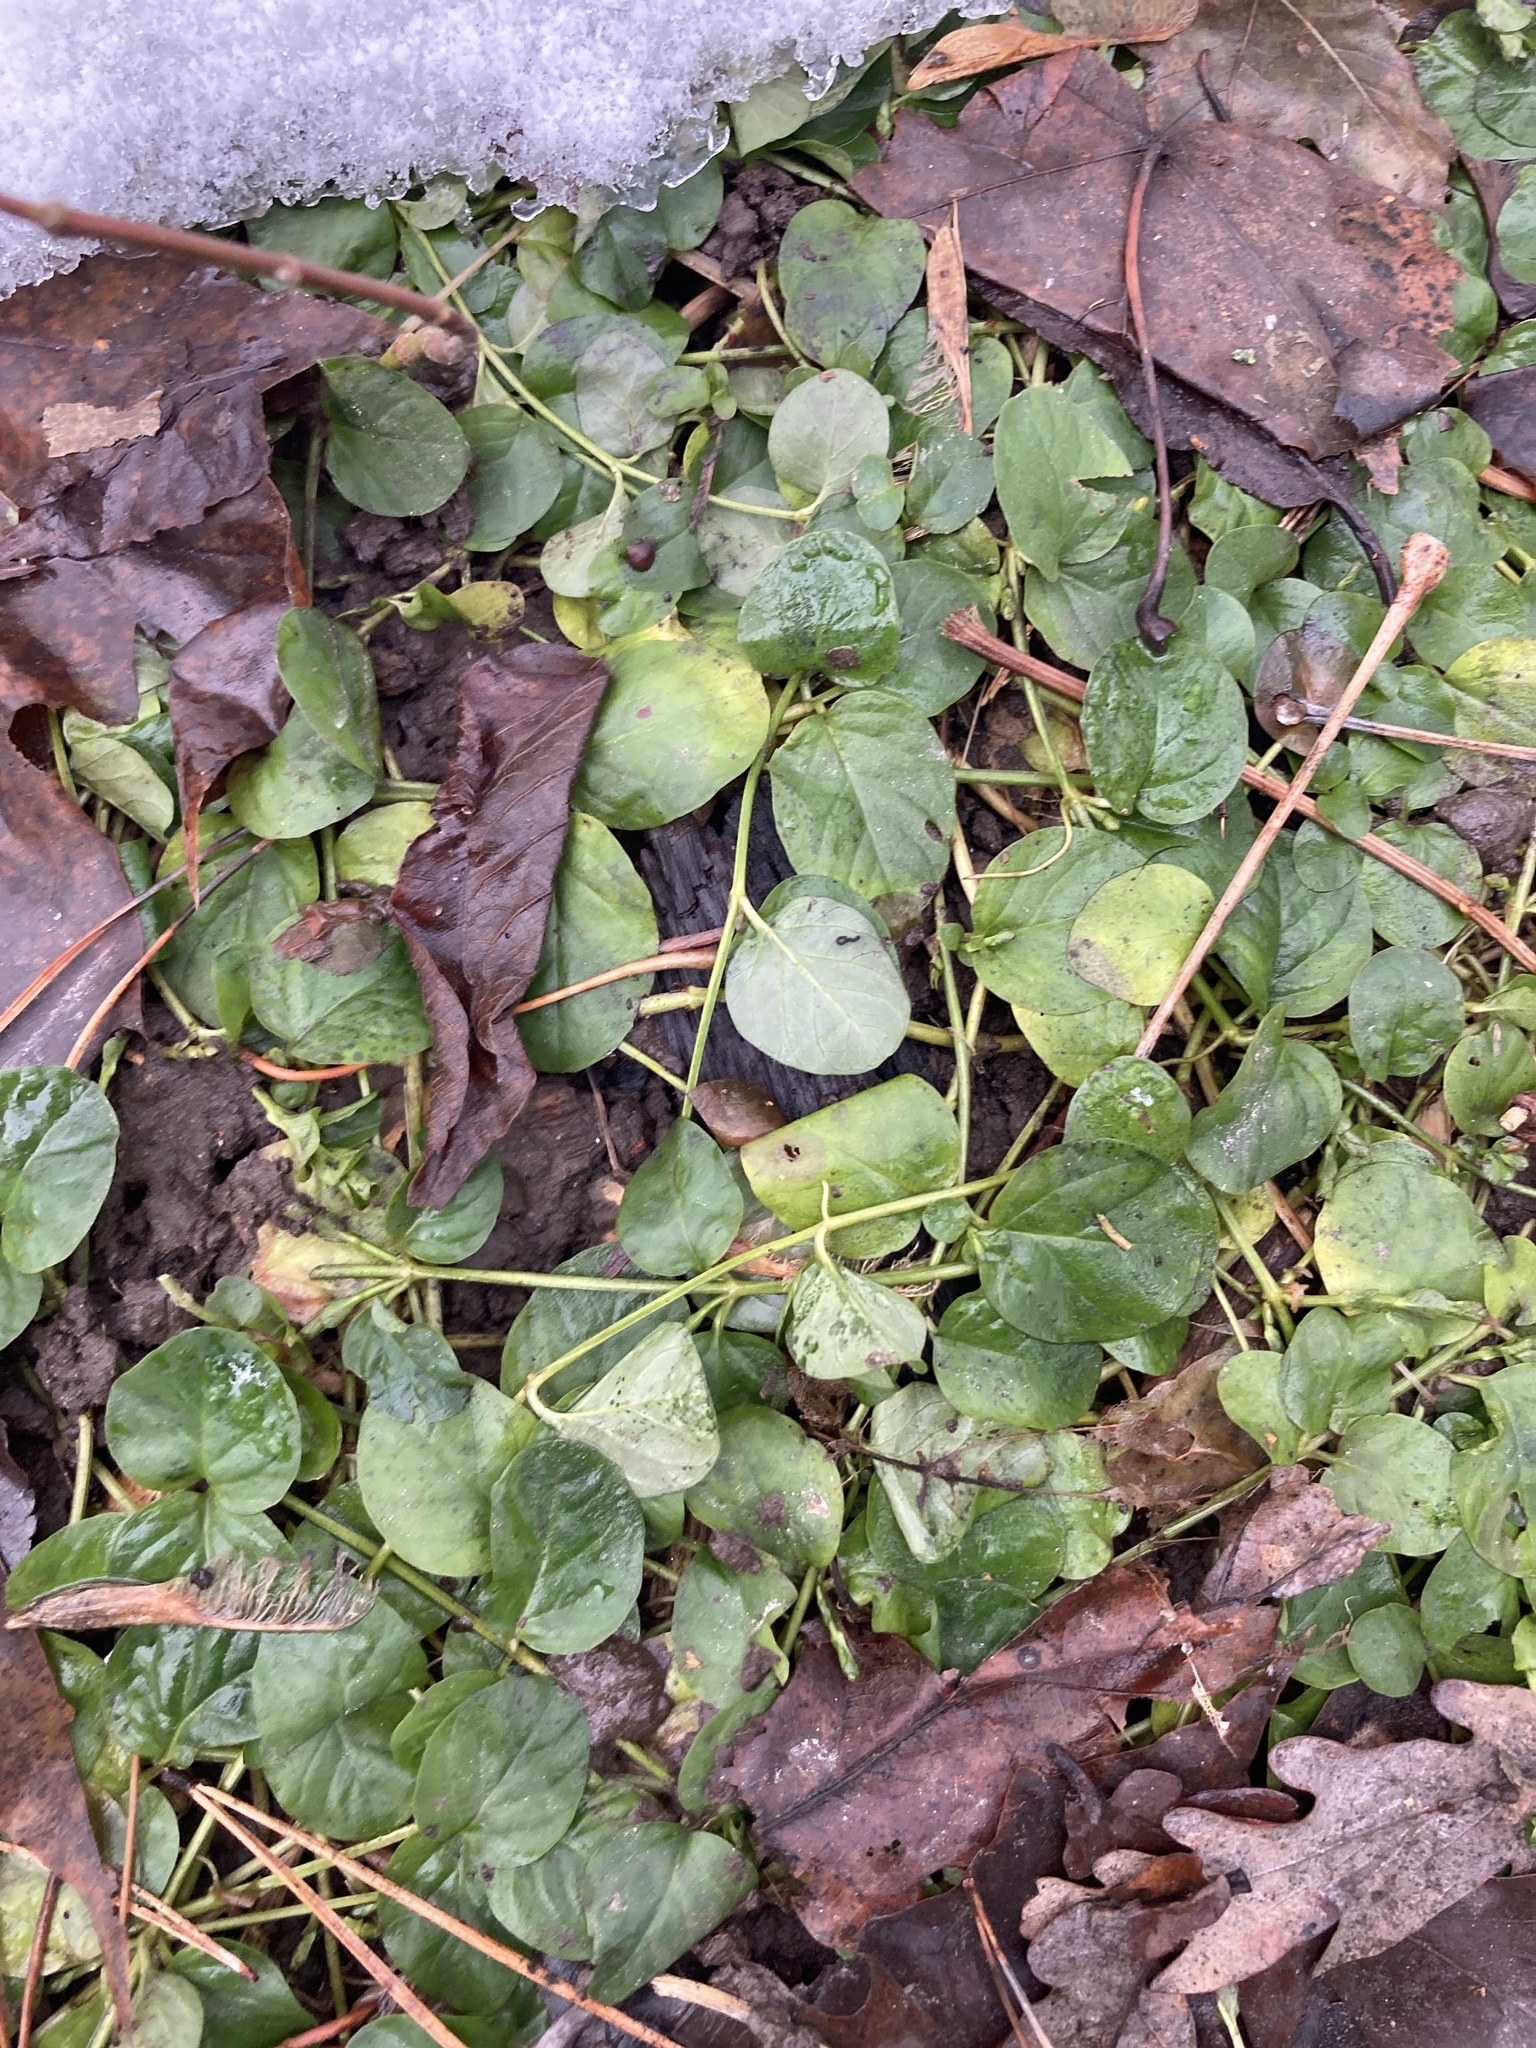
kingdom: Plantae
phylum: Tracheophyta
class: Magnoliopsida
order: Ericales
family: Primulaceae
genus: Lysimachia
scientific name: Lysimachia nummularia
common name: Moneywort
